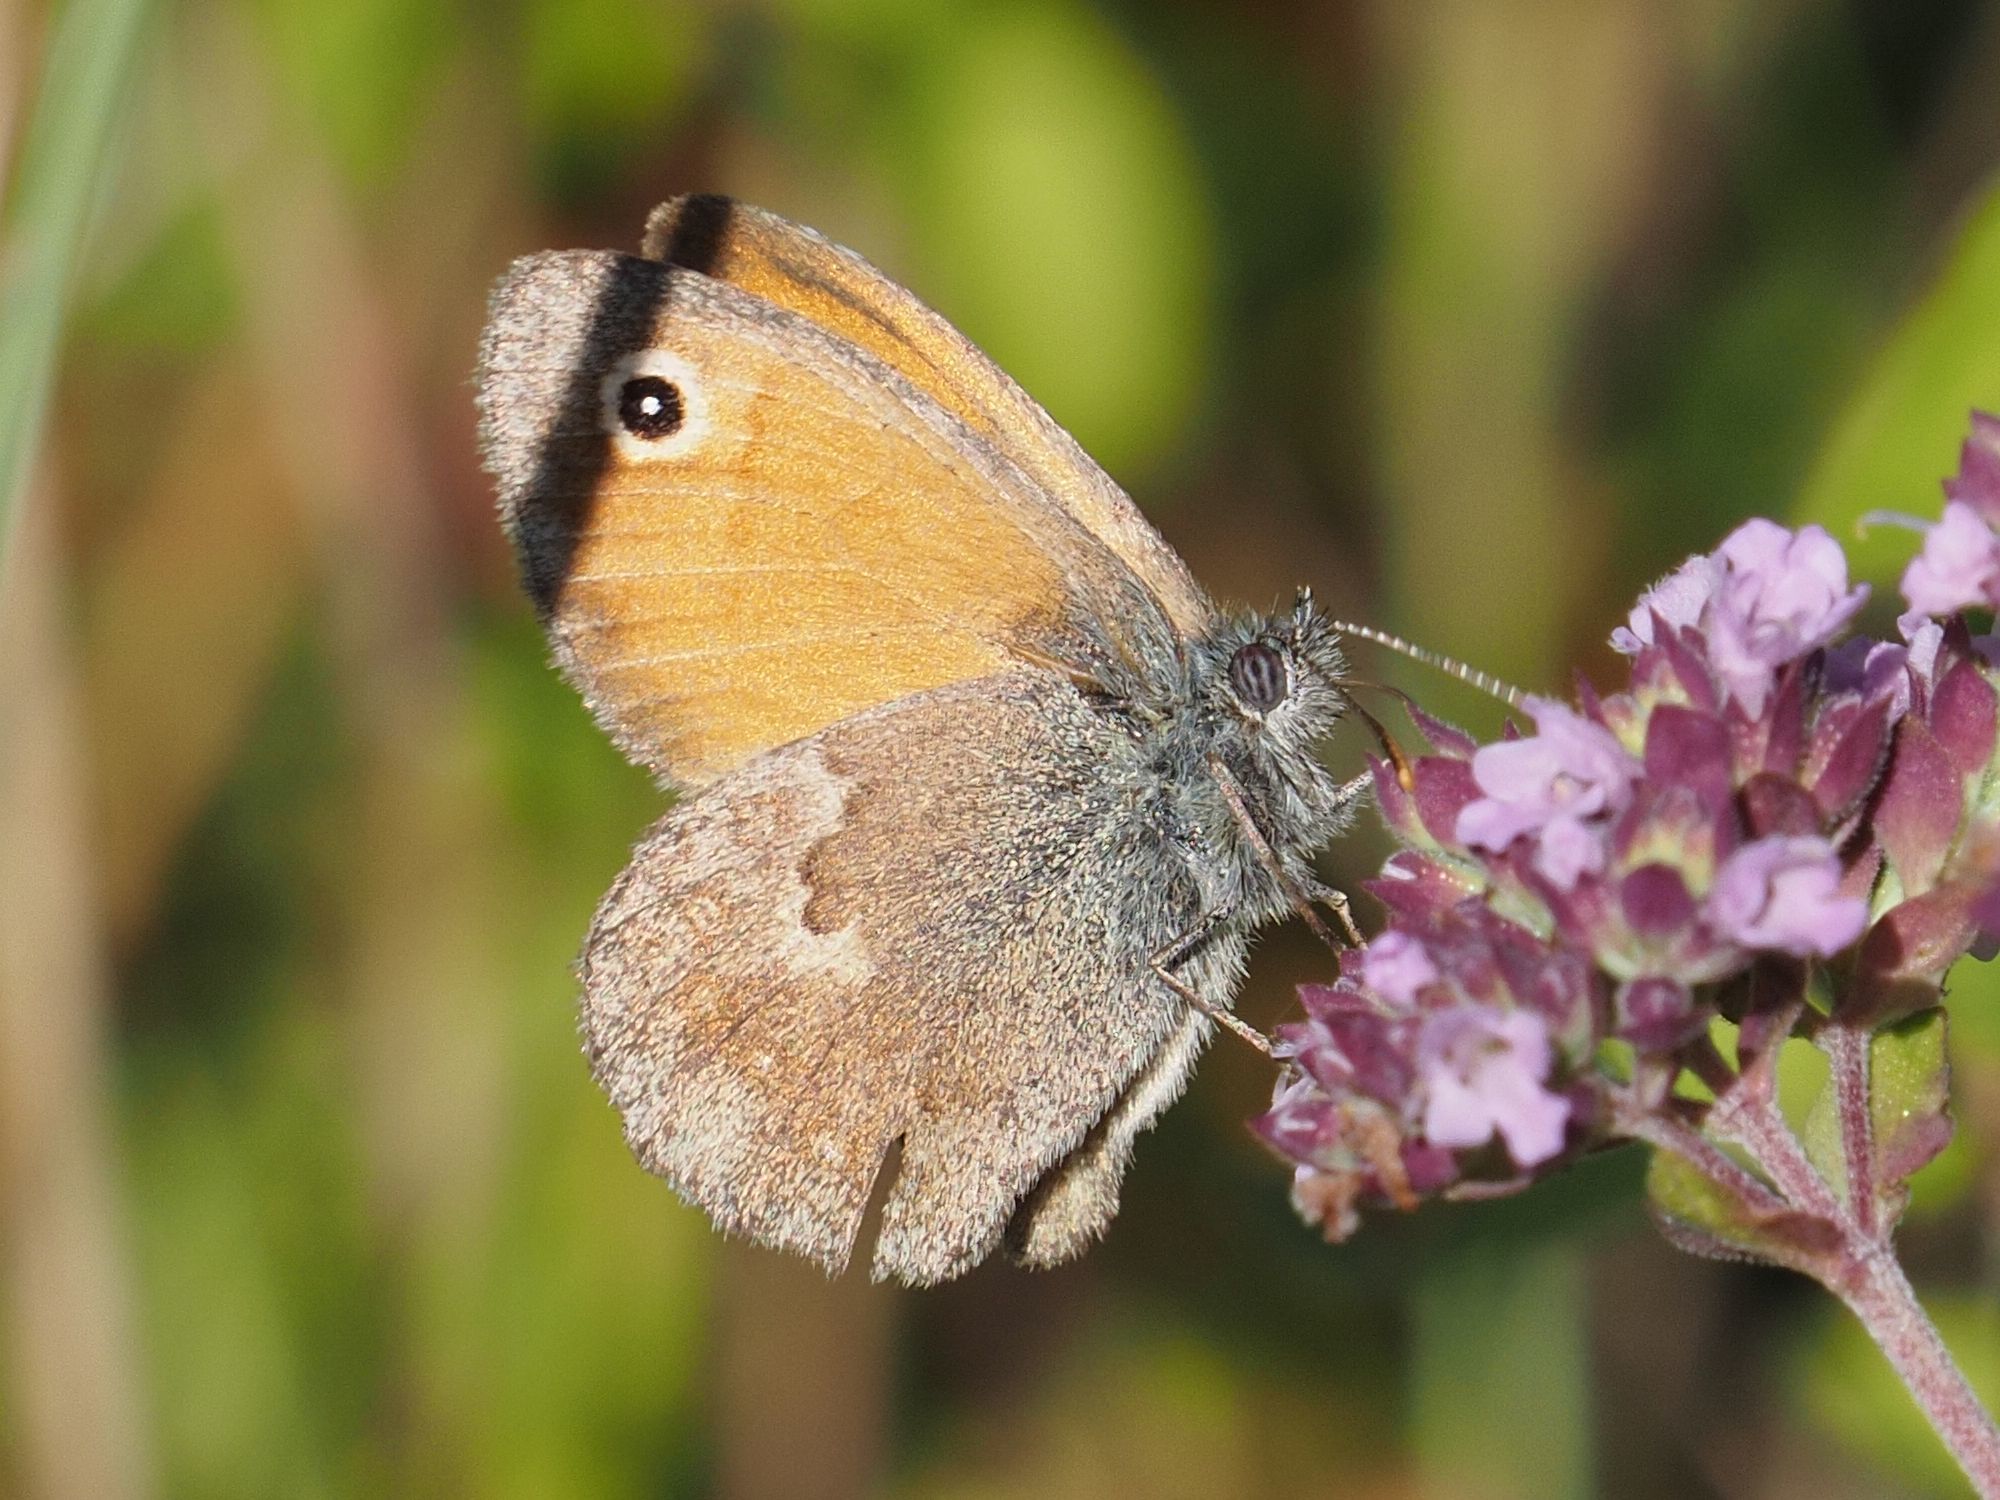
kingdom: Animalia
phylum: Arthropoda
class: Insecta
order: Lepidoptera
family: Nymphalidae
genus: Coenonympha
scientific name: Coenonympha pamphilus
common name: Small heath
